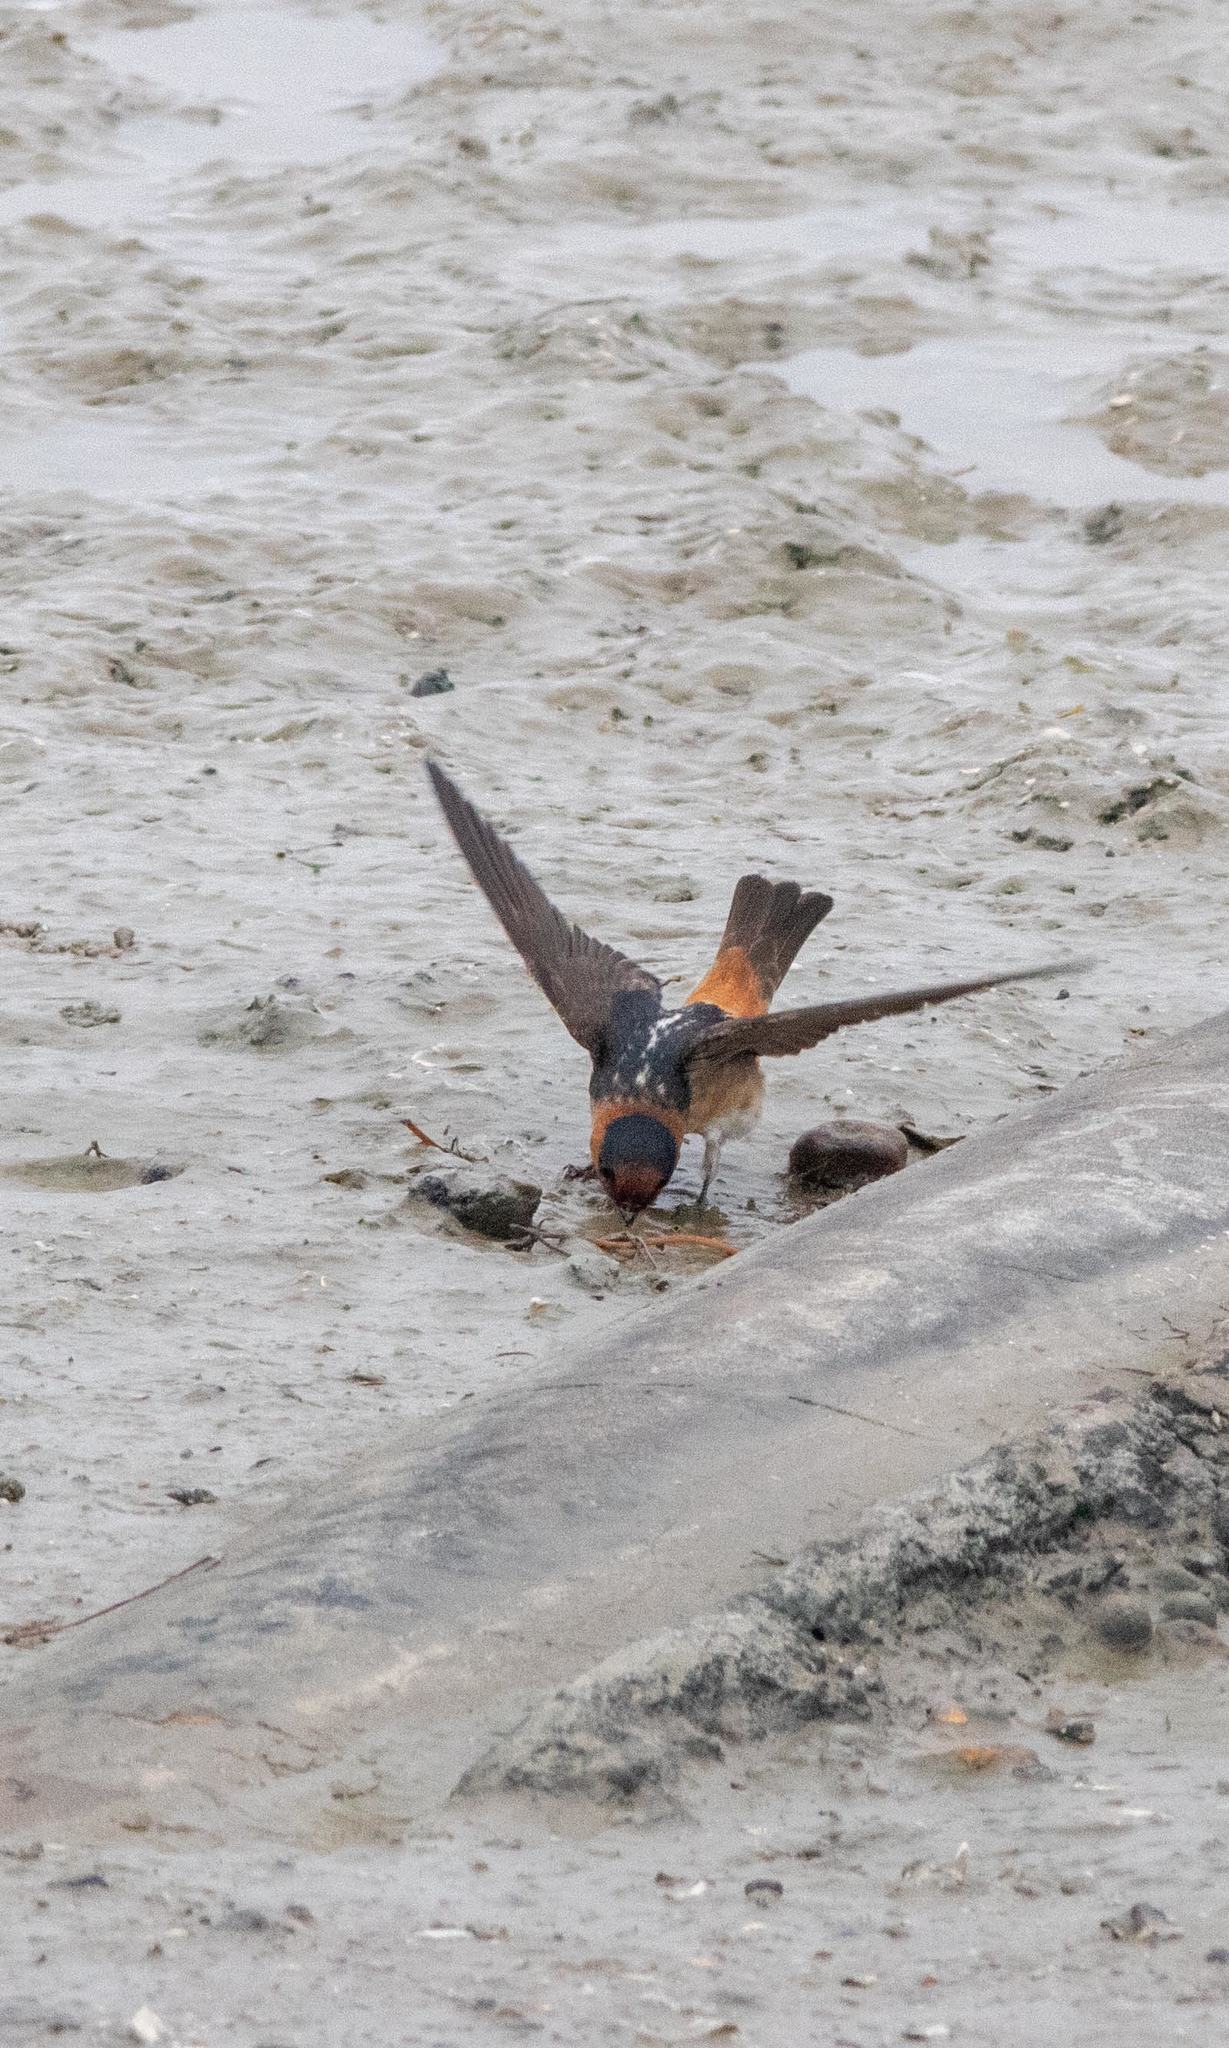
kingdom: Animalia
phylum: Chordata
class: Aves
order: Passeriformes
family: Hirundinidae
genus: Petrochelidon
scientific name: Petrochelidon fulva
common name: Cave swallow
